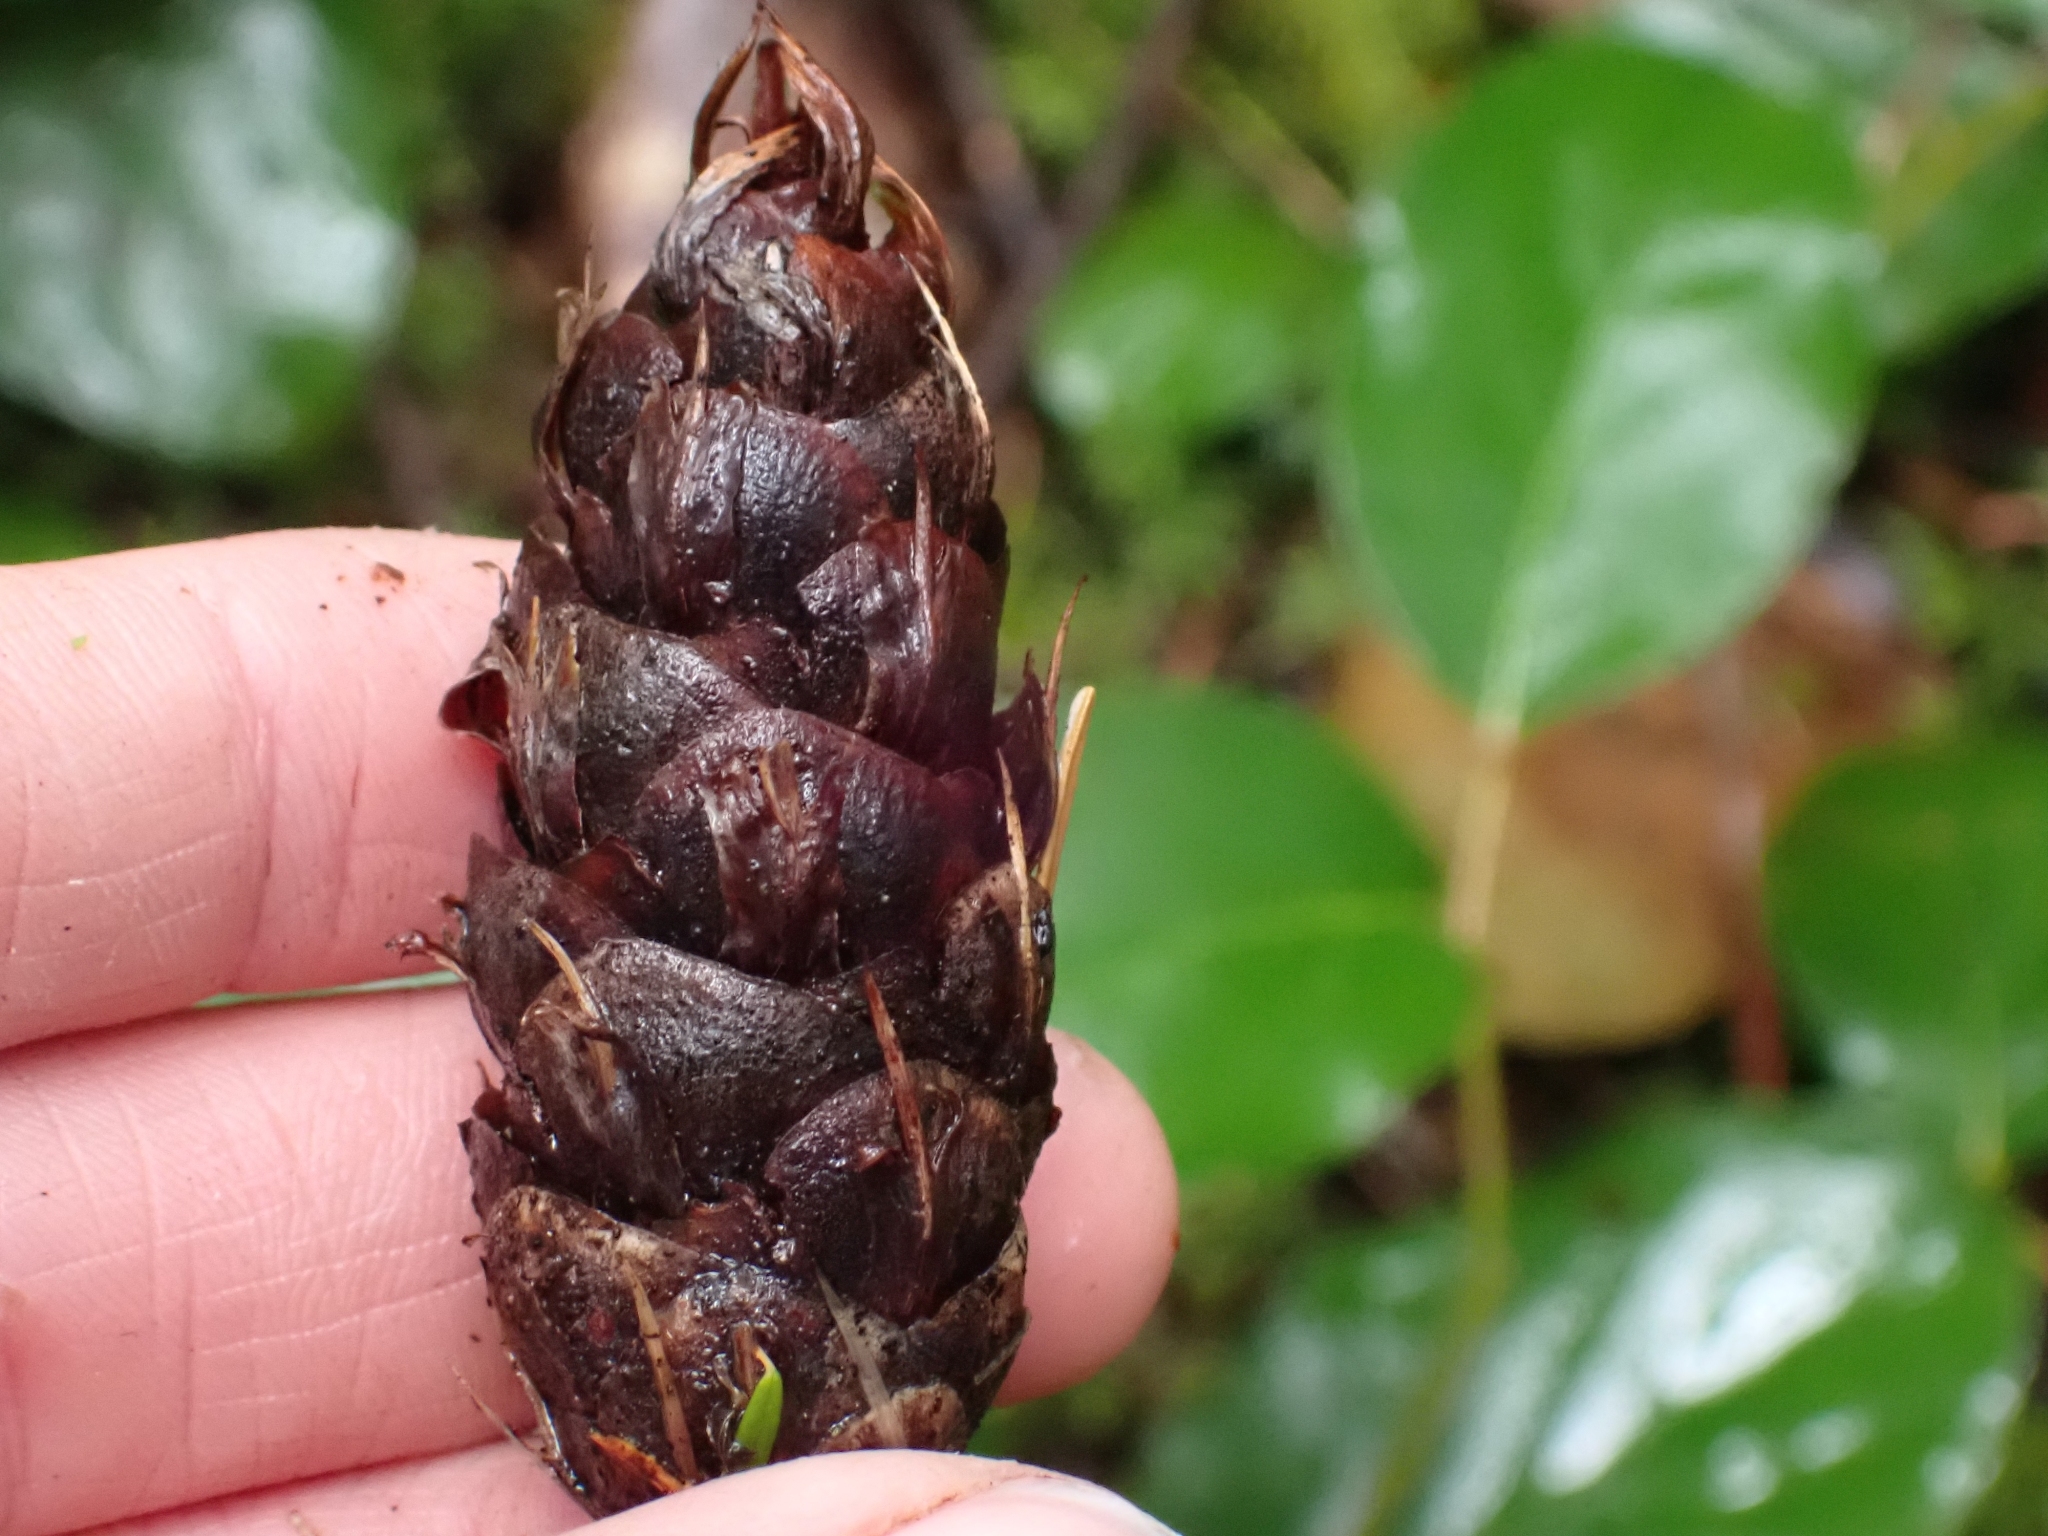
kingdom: Plantae
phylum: Tracheophyta
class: Pinopsida
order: Pinales
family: Pinaceae
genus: Pseudotsuga
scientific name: Pseudotsuga menziesii
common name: Douglas fir
